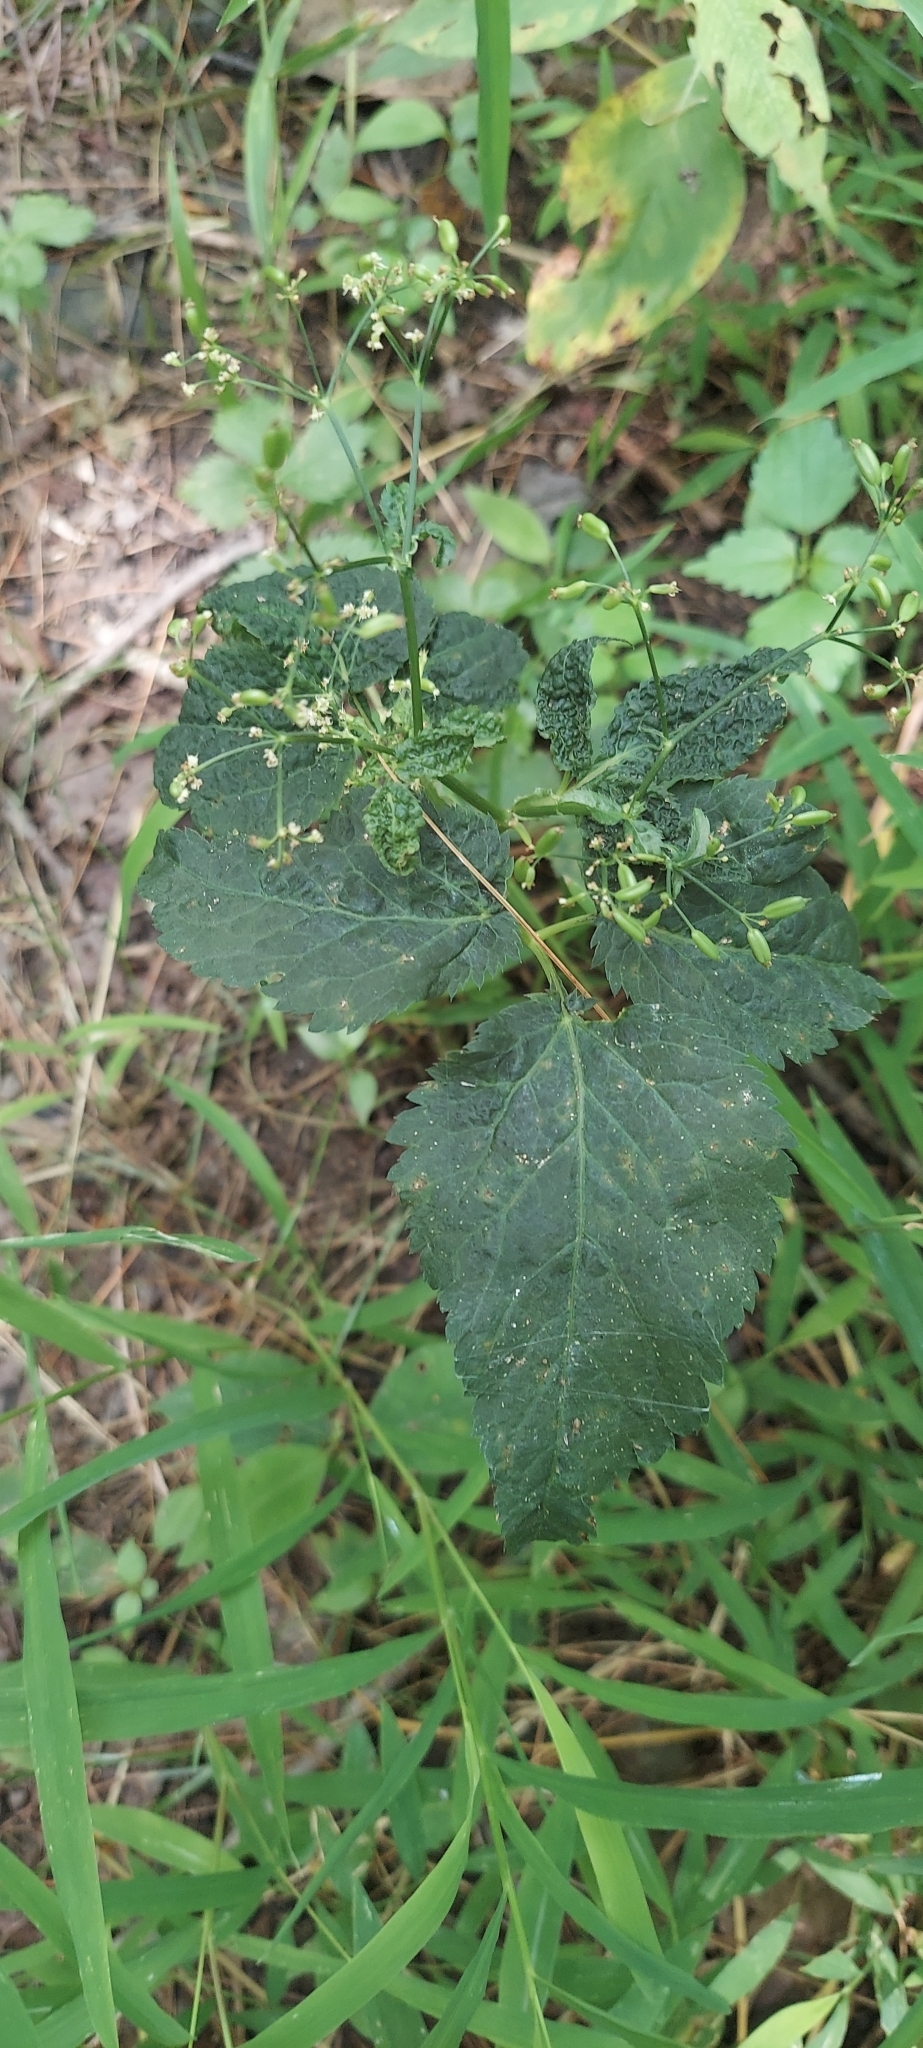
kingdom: Plantae
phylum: Tracheophyta
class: Magnoliopsida
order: Apiales
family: Apiaceae
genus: Cryptotaenia
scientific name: Cryptotaenia canadensis
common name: Honewort
